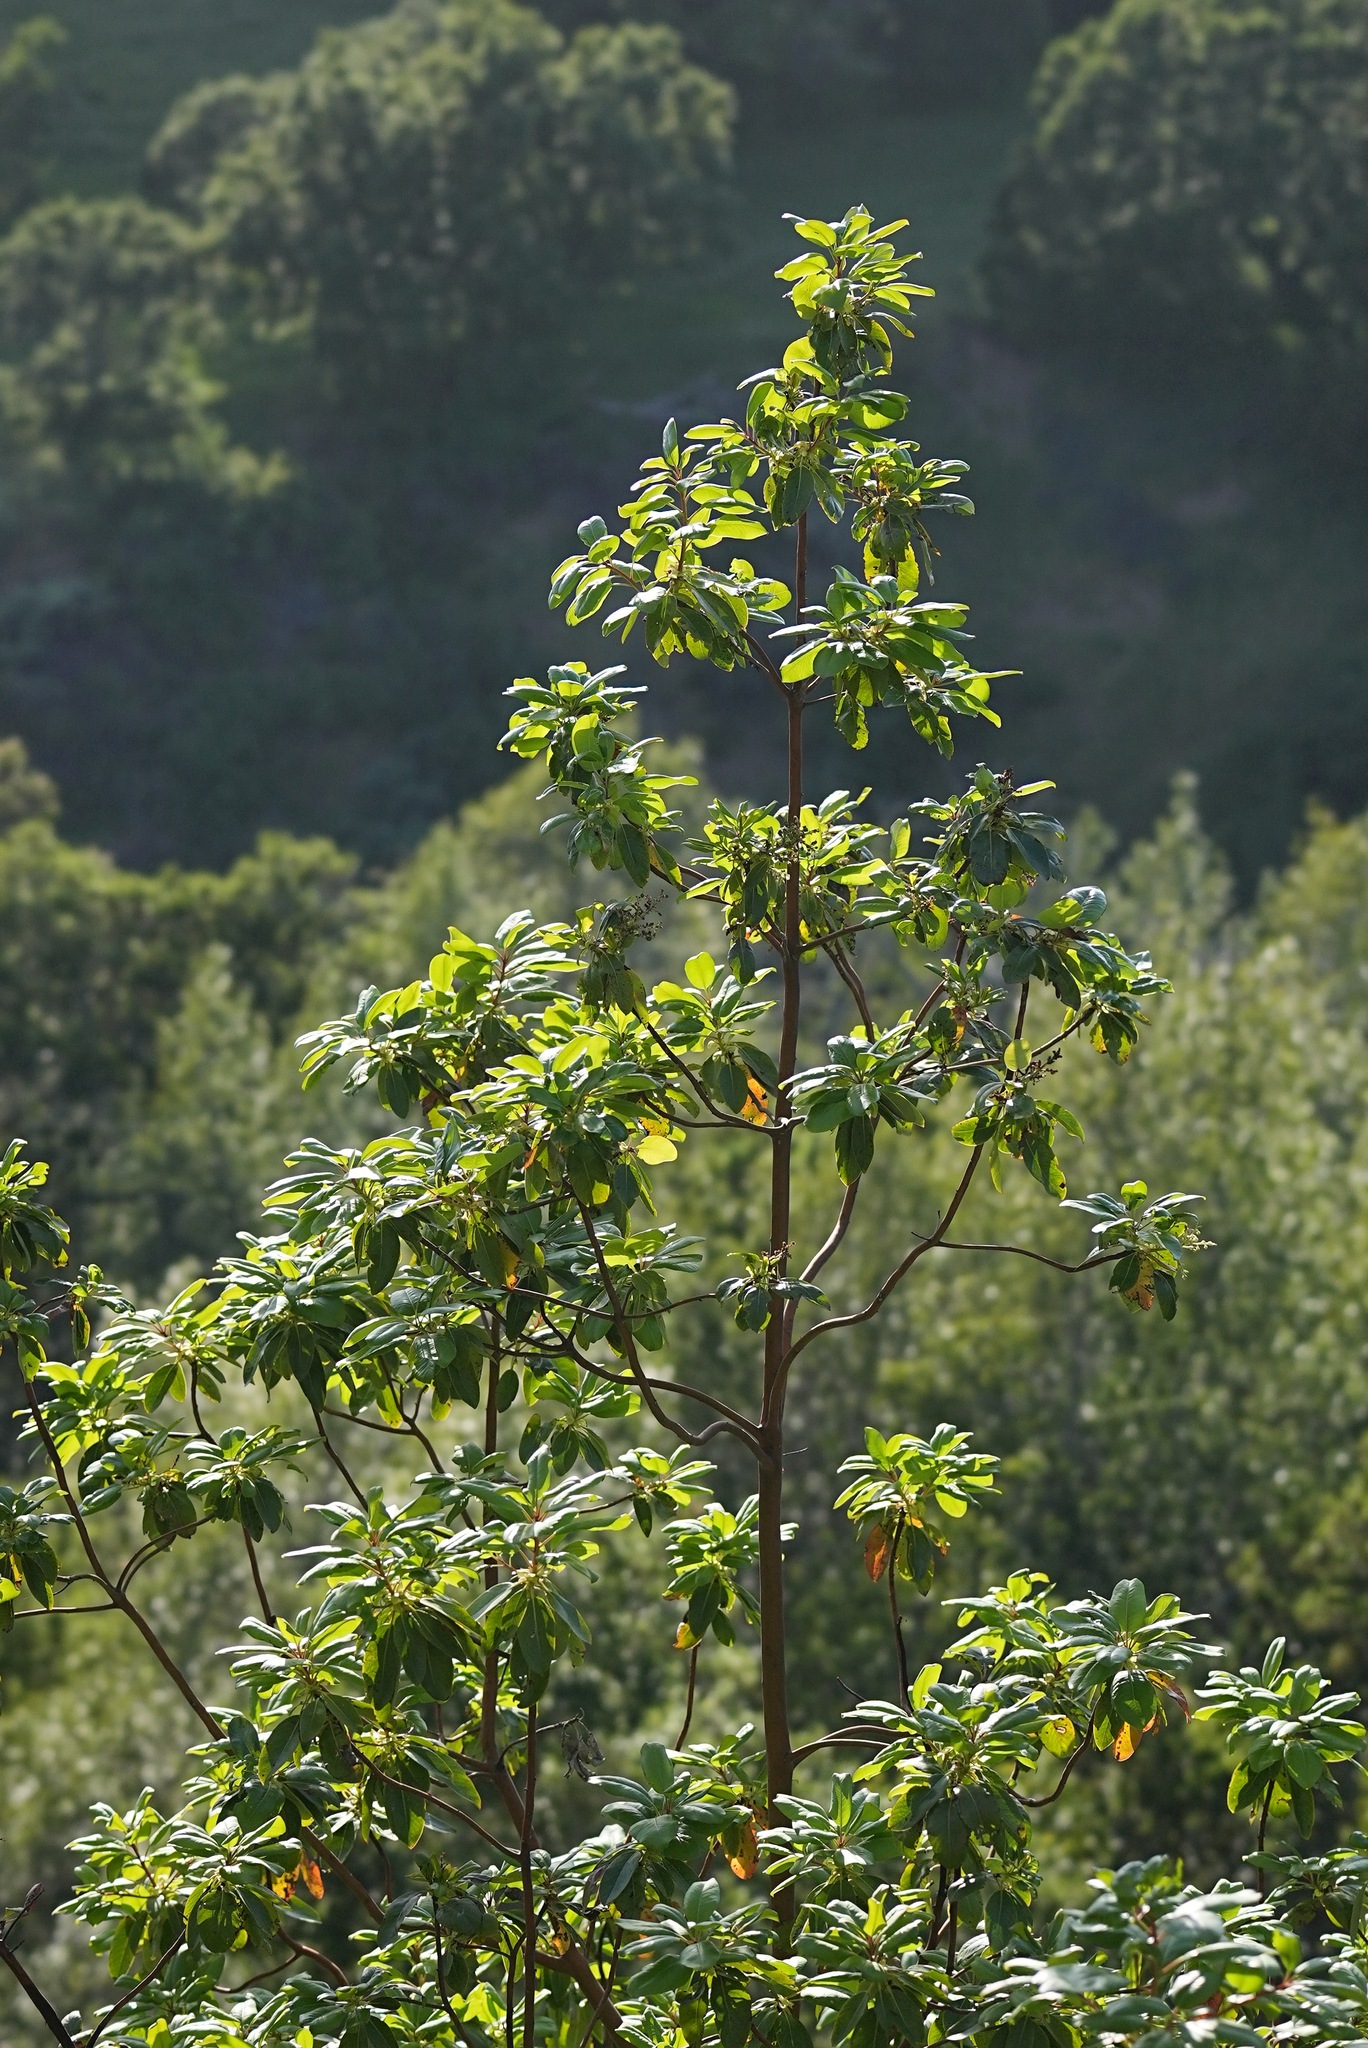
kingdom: Plantae
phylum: Tracheophyta
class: Magnoliopsida
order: Ericales
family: Ericaceae
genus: Arbutus
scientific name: Arbutus menziesii
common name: Pacific madrone
